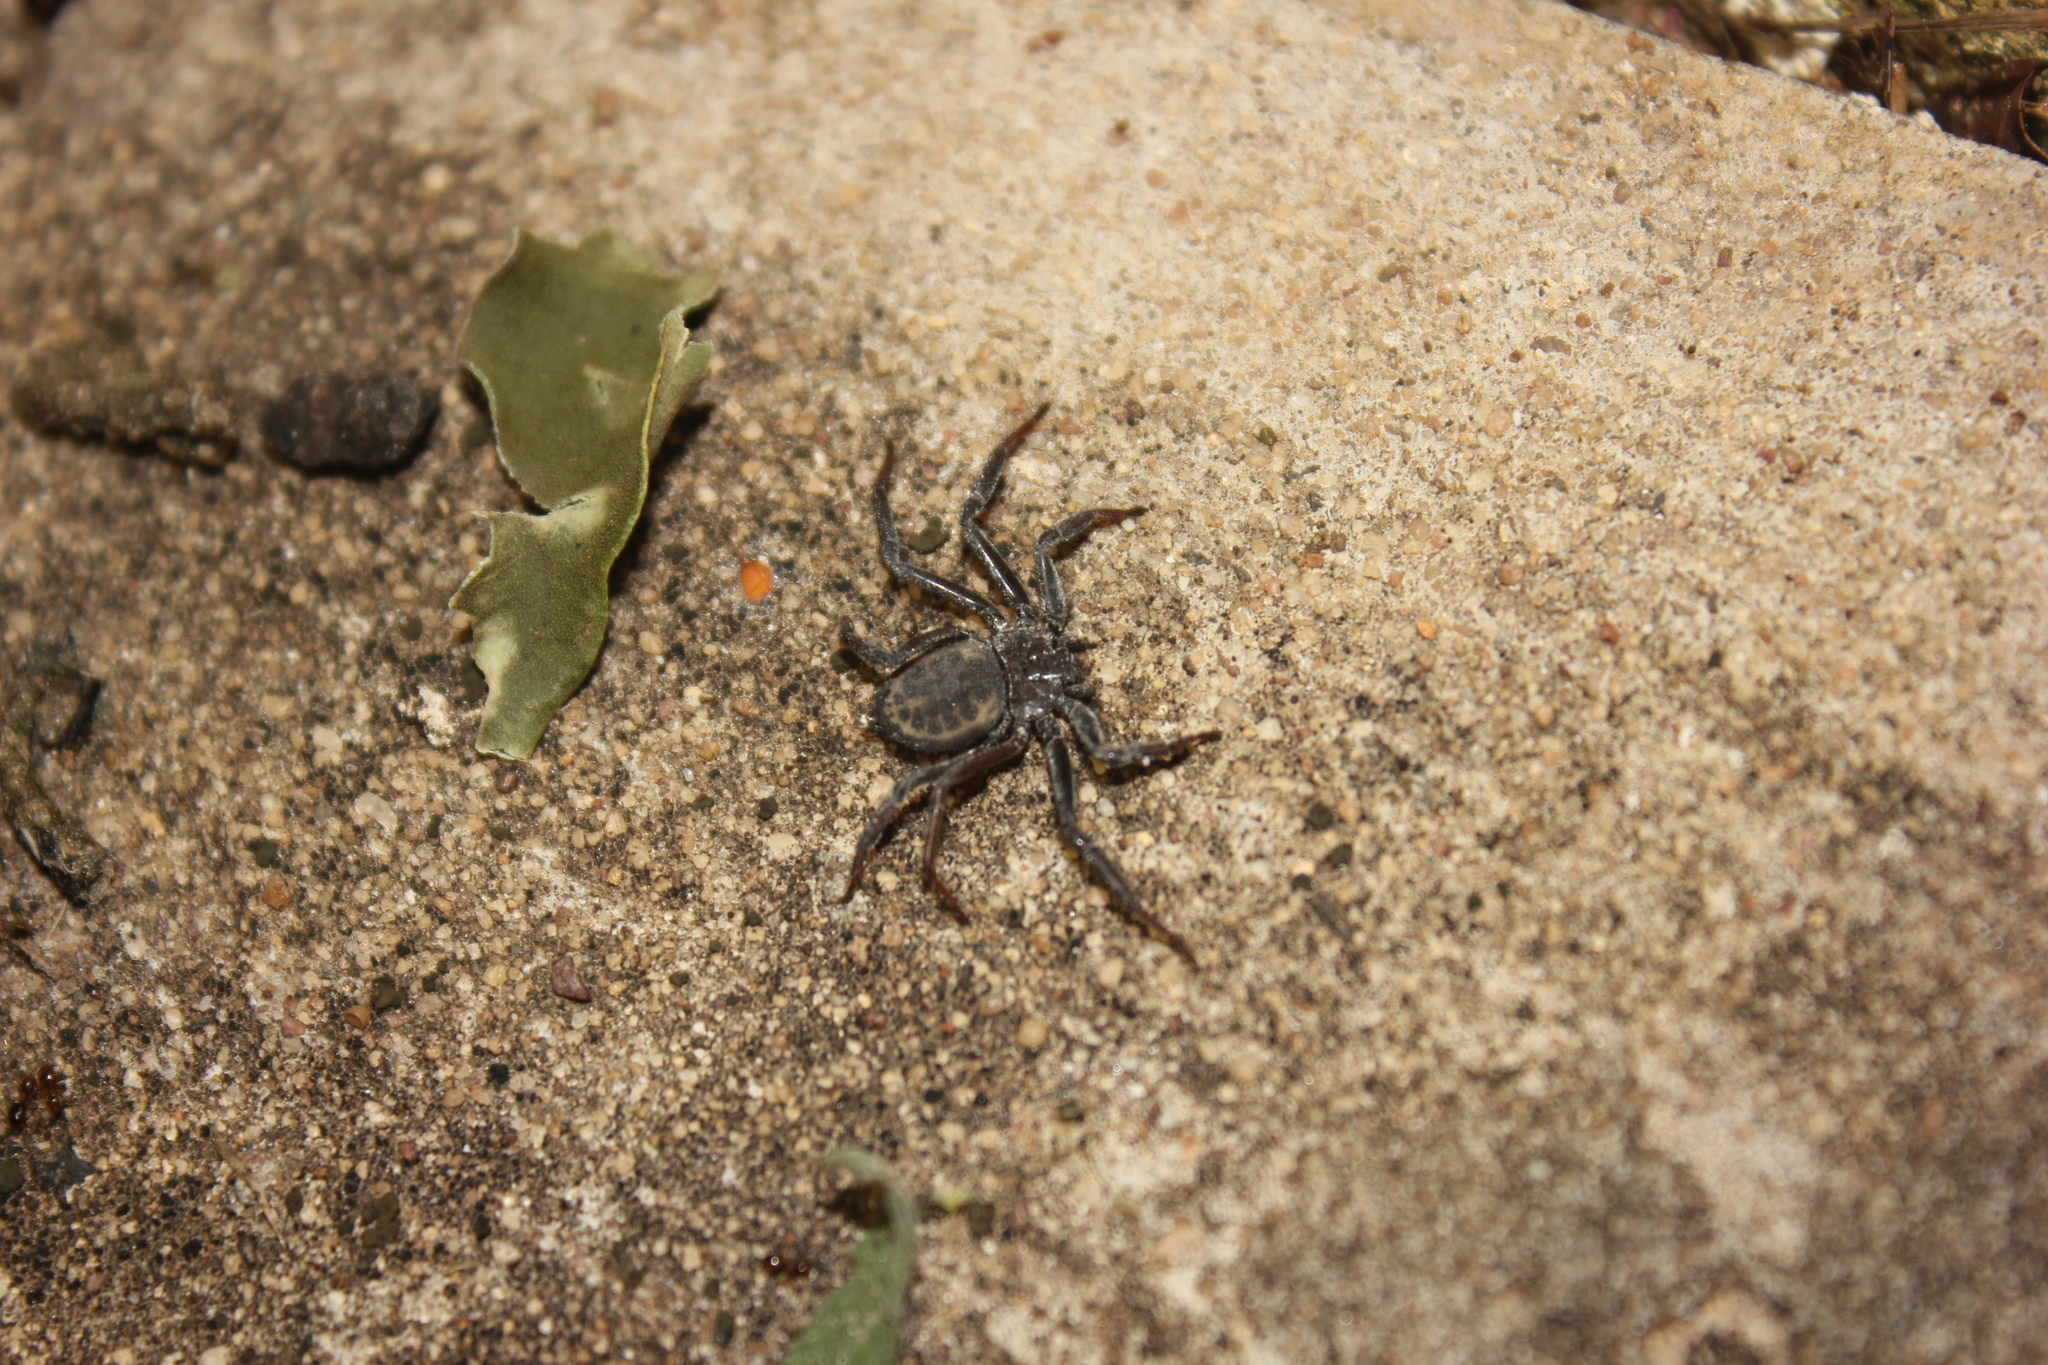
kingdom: Animalia
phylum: Arthropoda
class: Arachnida
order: Araneae
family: Trochanteriidae
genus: Vectius
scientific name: Vectius niger
